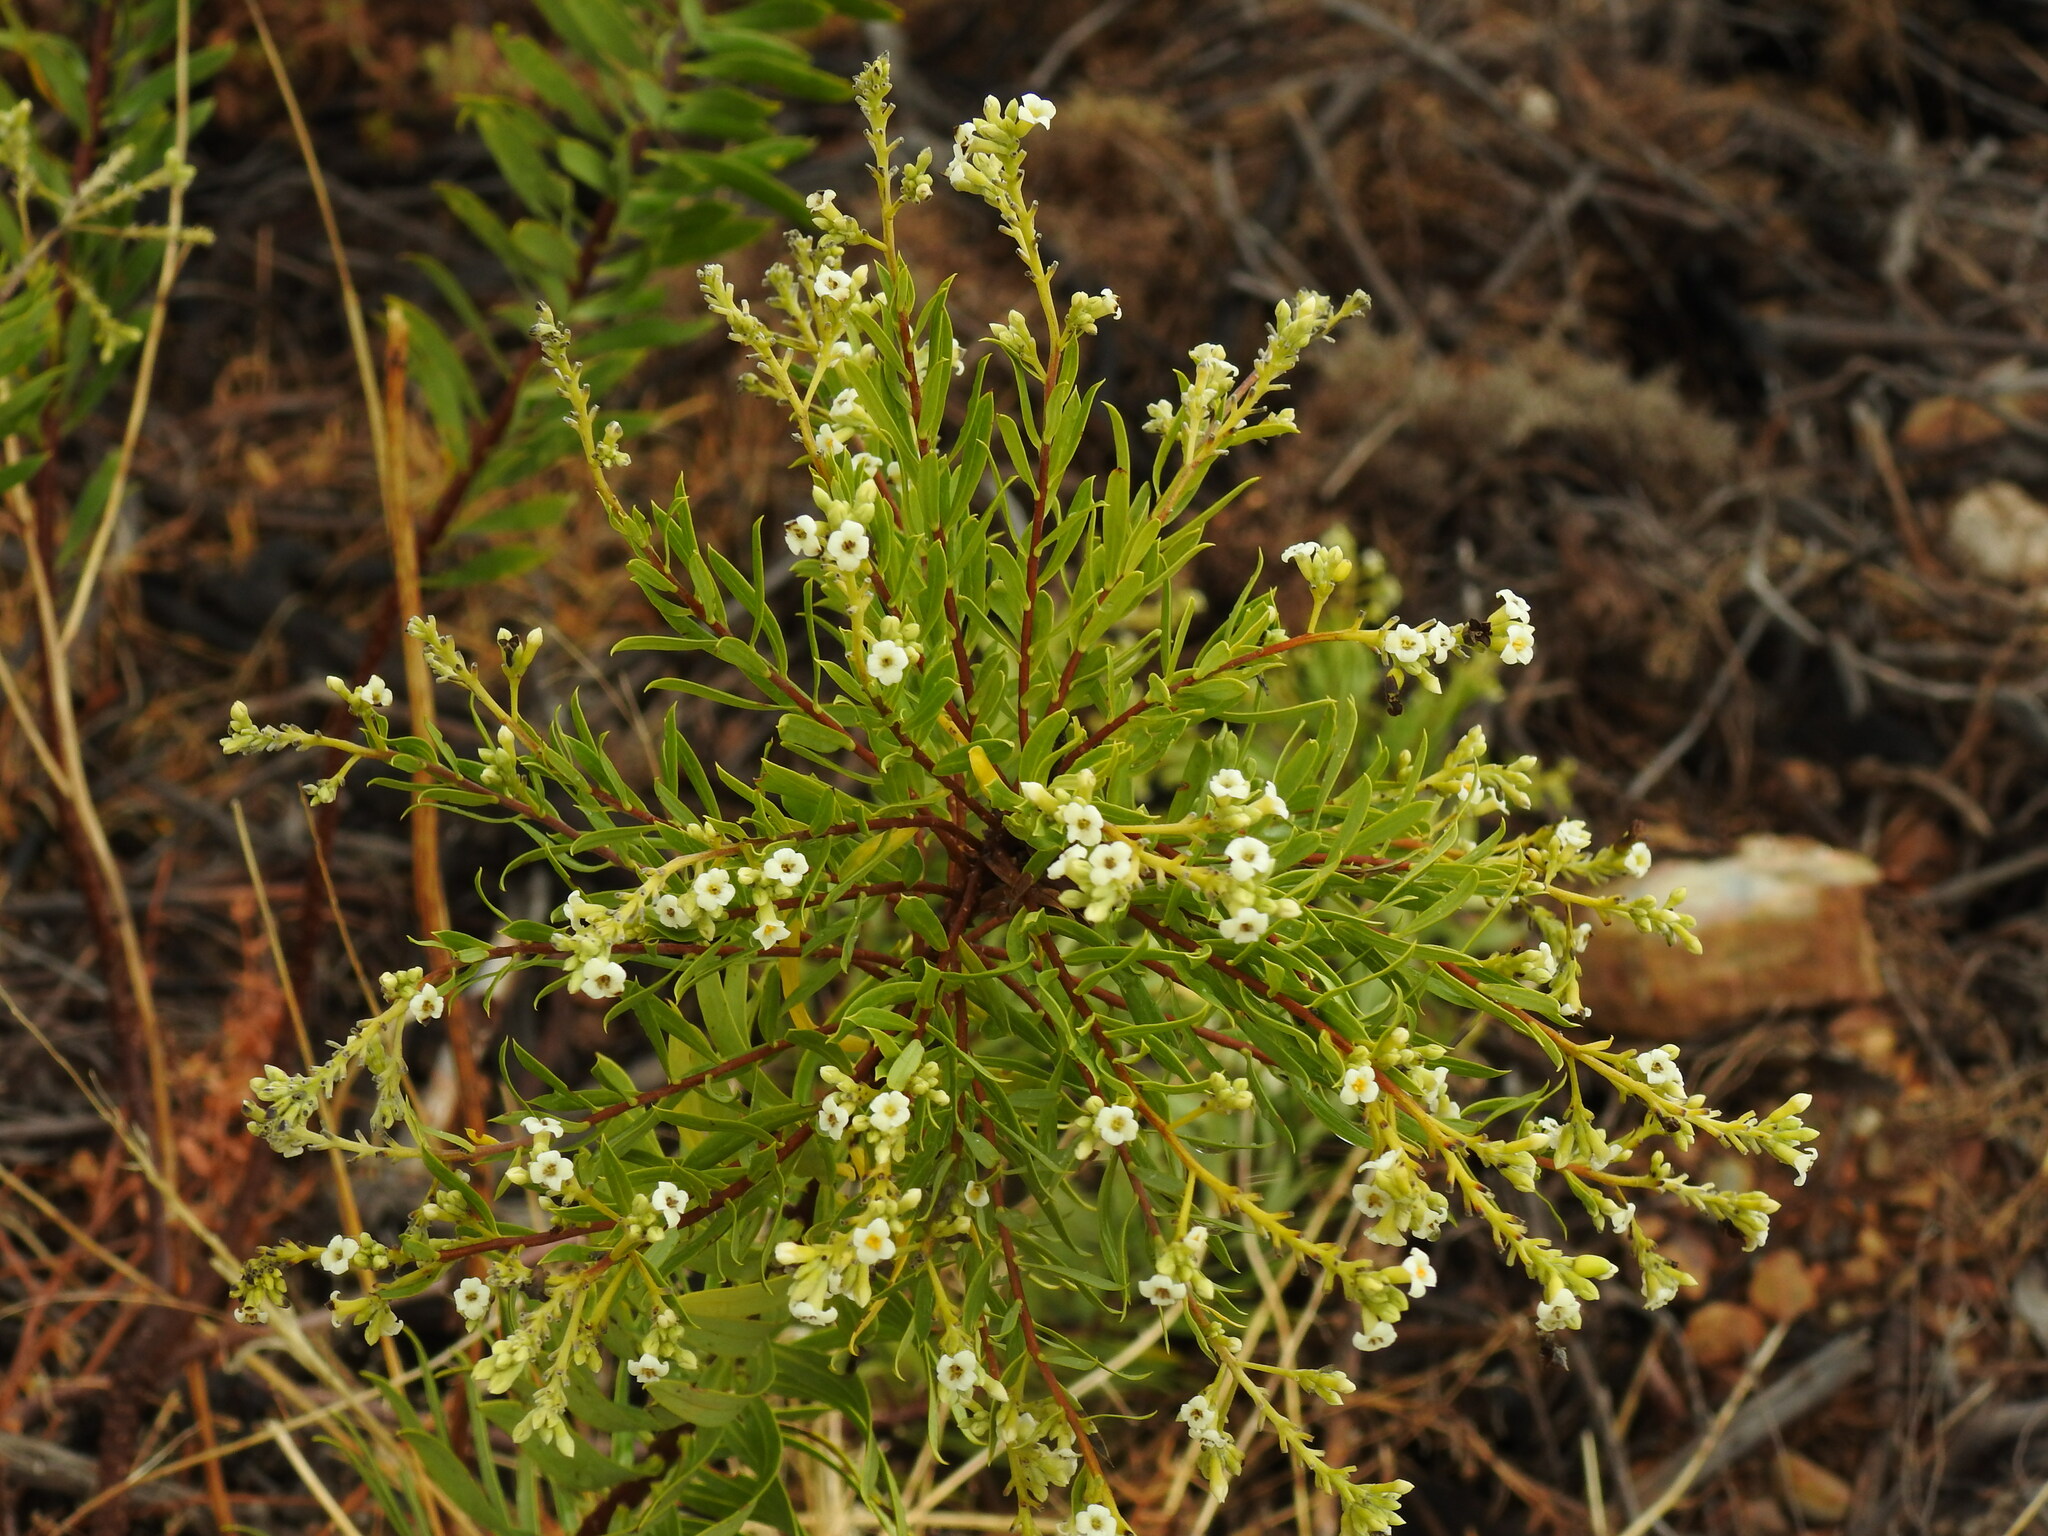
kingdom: Plantae
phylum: Tracheophyta
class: Magnoliopsida
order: Malvales
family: Thymelaeaceae
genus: Daphne
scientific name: Daphne gnidium
